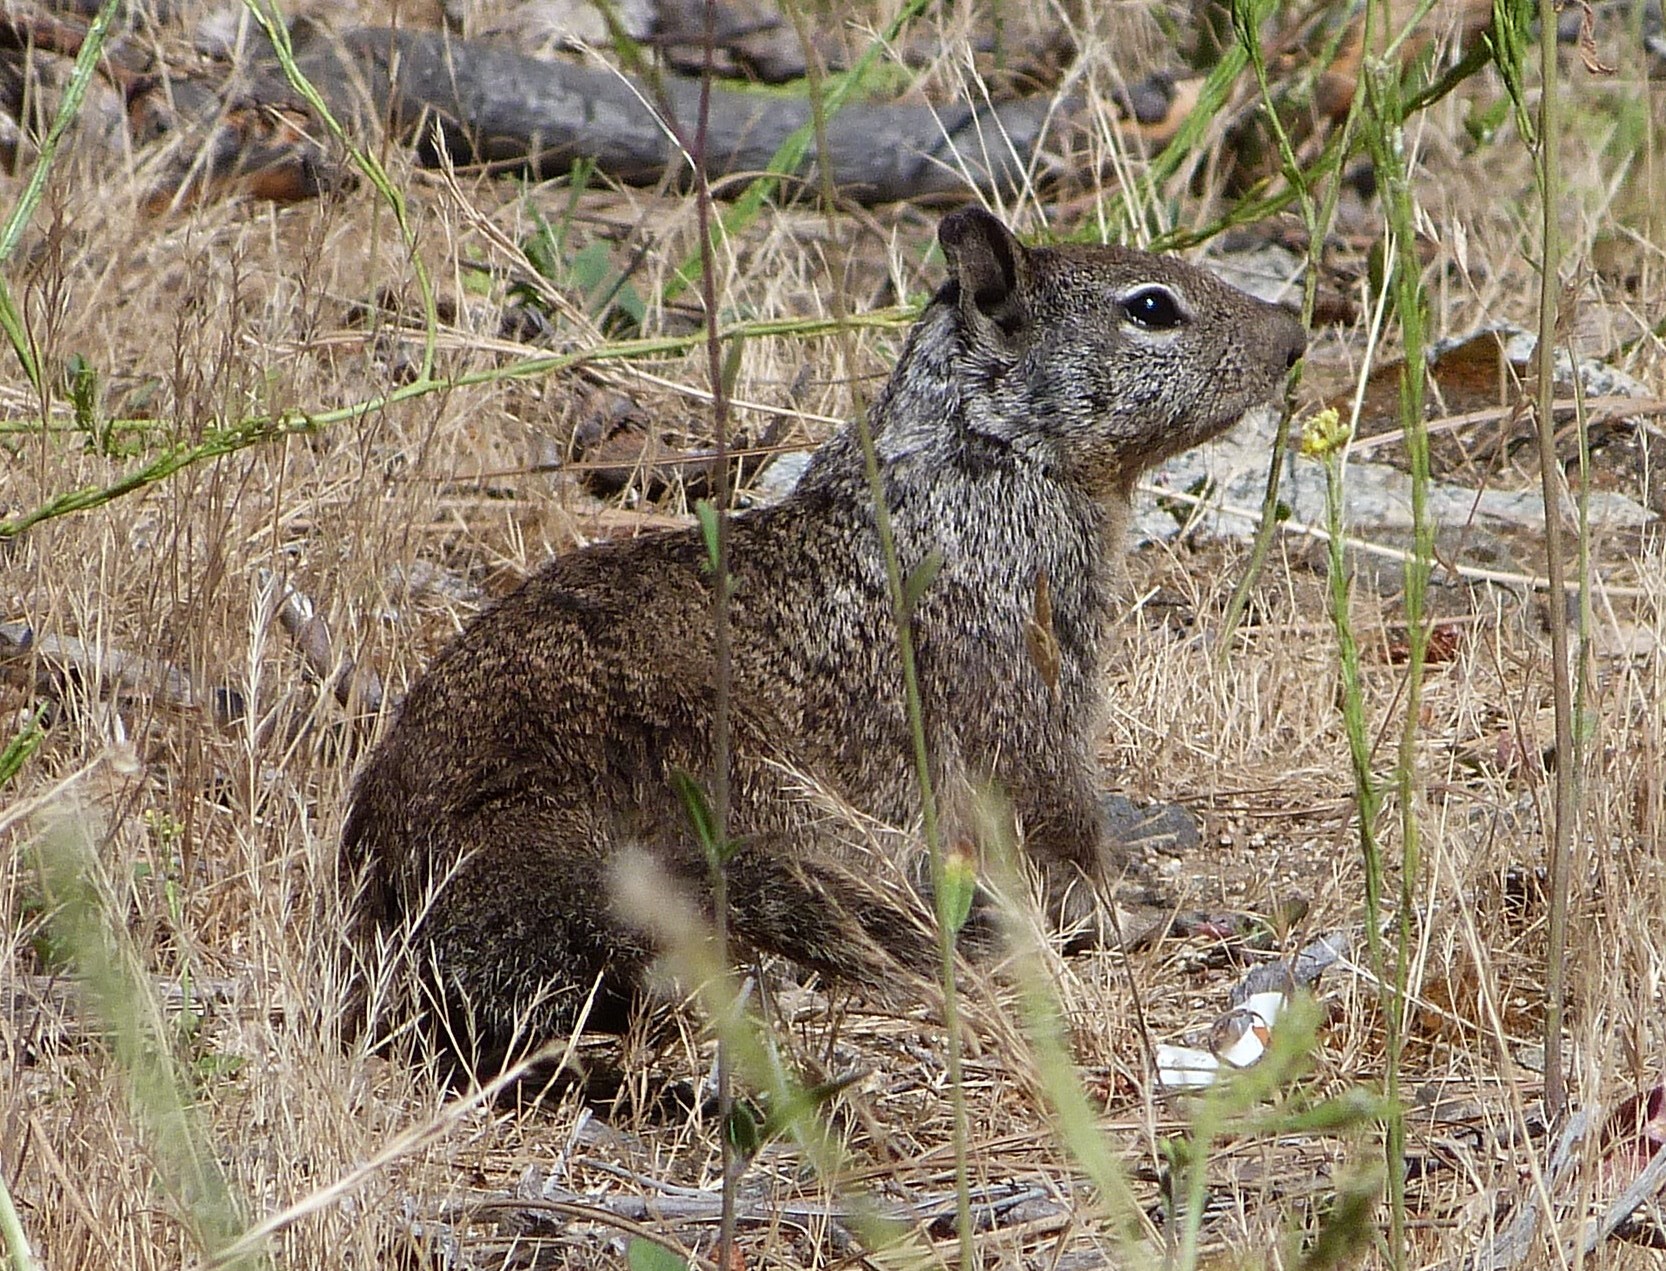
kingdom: Animalia
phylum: Chordata
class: Mammalia
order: Rodentia
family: Sciuridae
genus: Otospermophilus
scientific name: Otospermophilus beecheyi
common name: California ground squirrel
